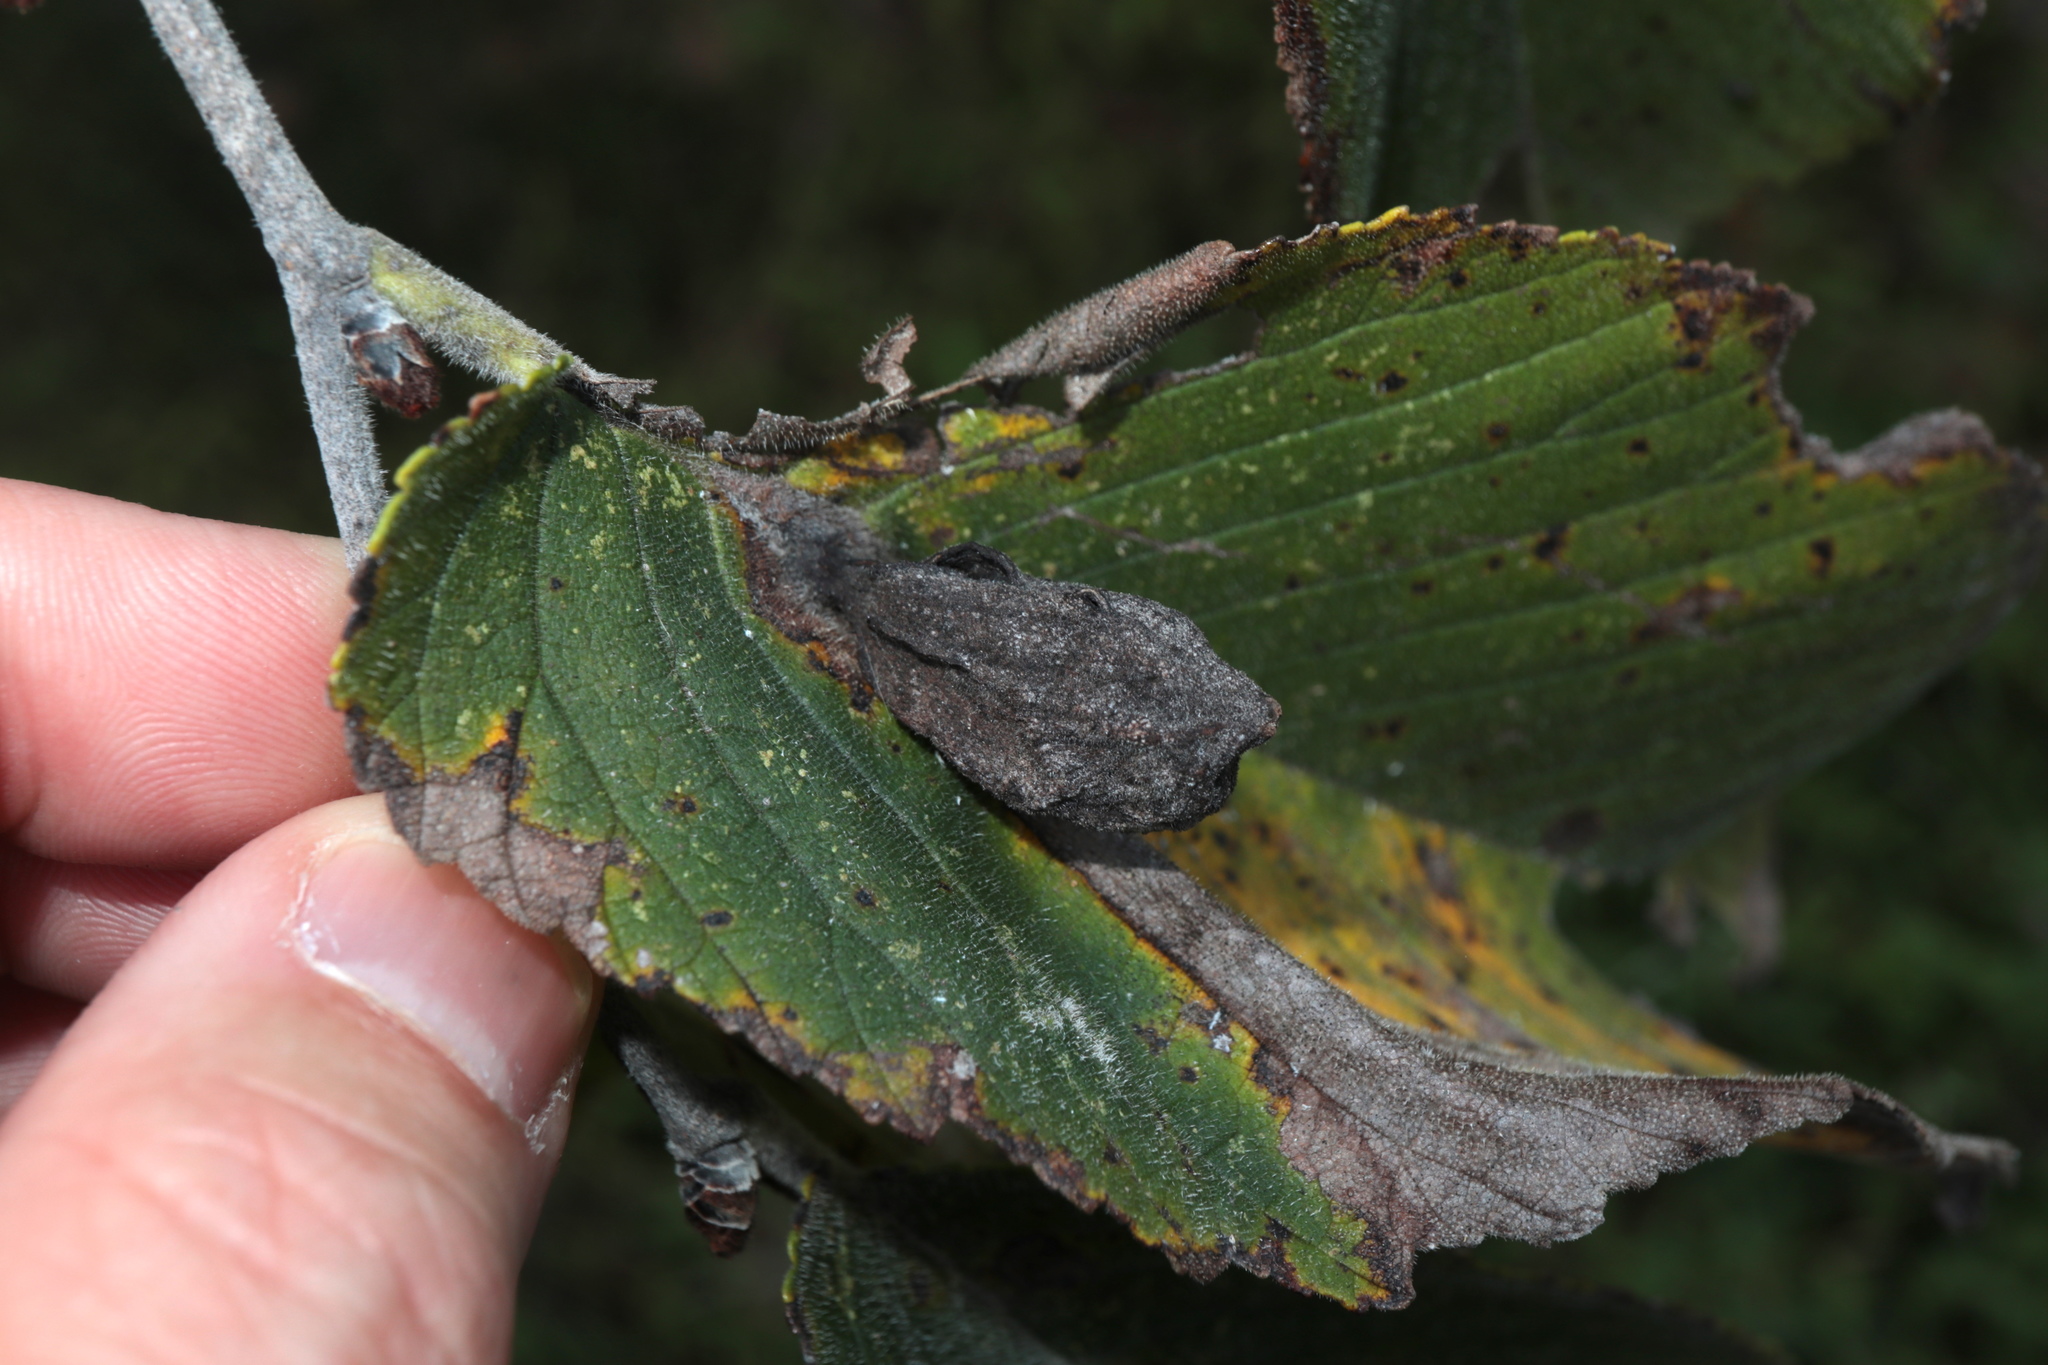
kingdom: Animalia
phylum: Arthropoda
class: Insecta
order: Hemiptera
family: Aphididae
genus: Kaltenbachiella
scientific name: Kaltenbachiella ulmifusa
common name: Elm pouchgall aphid
